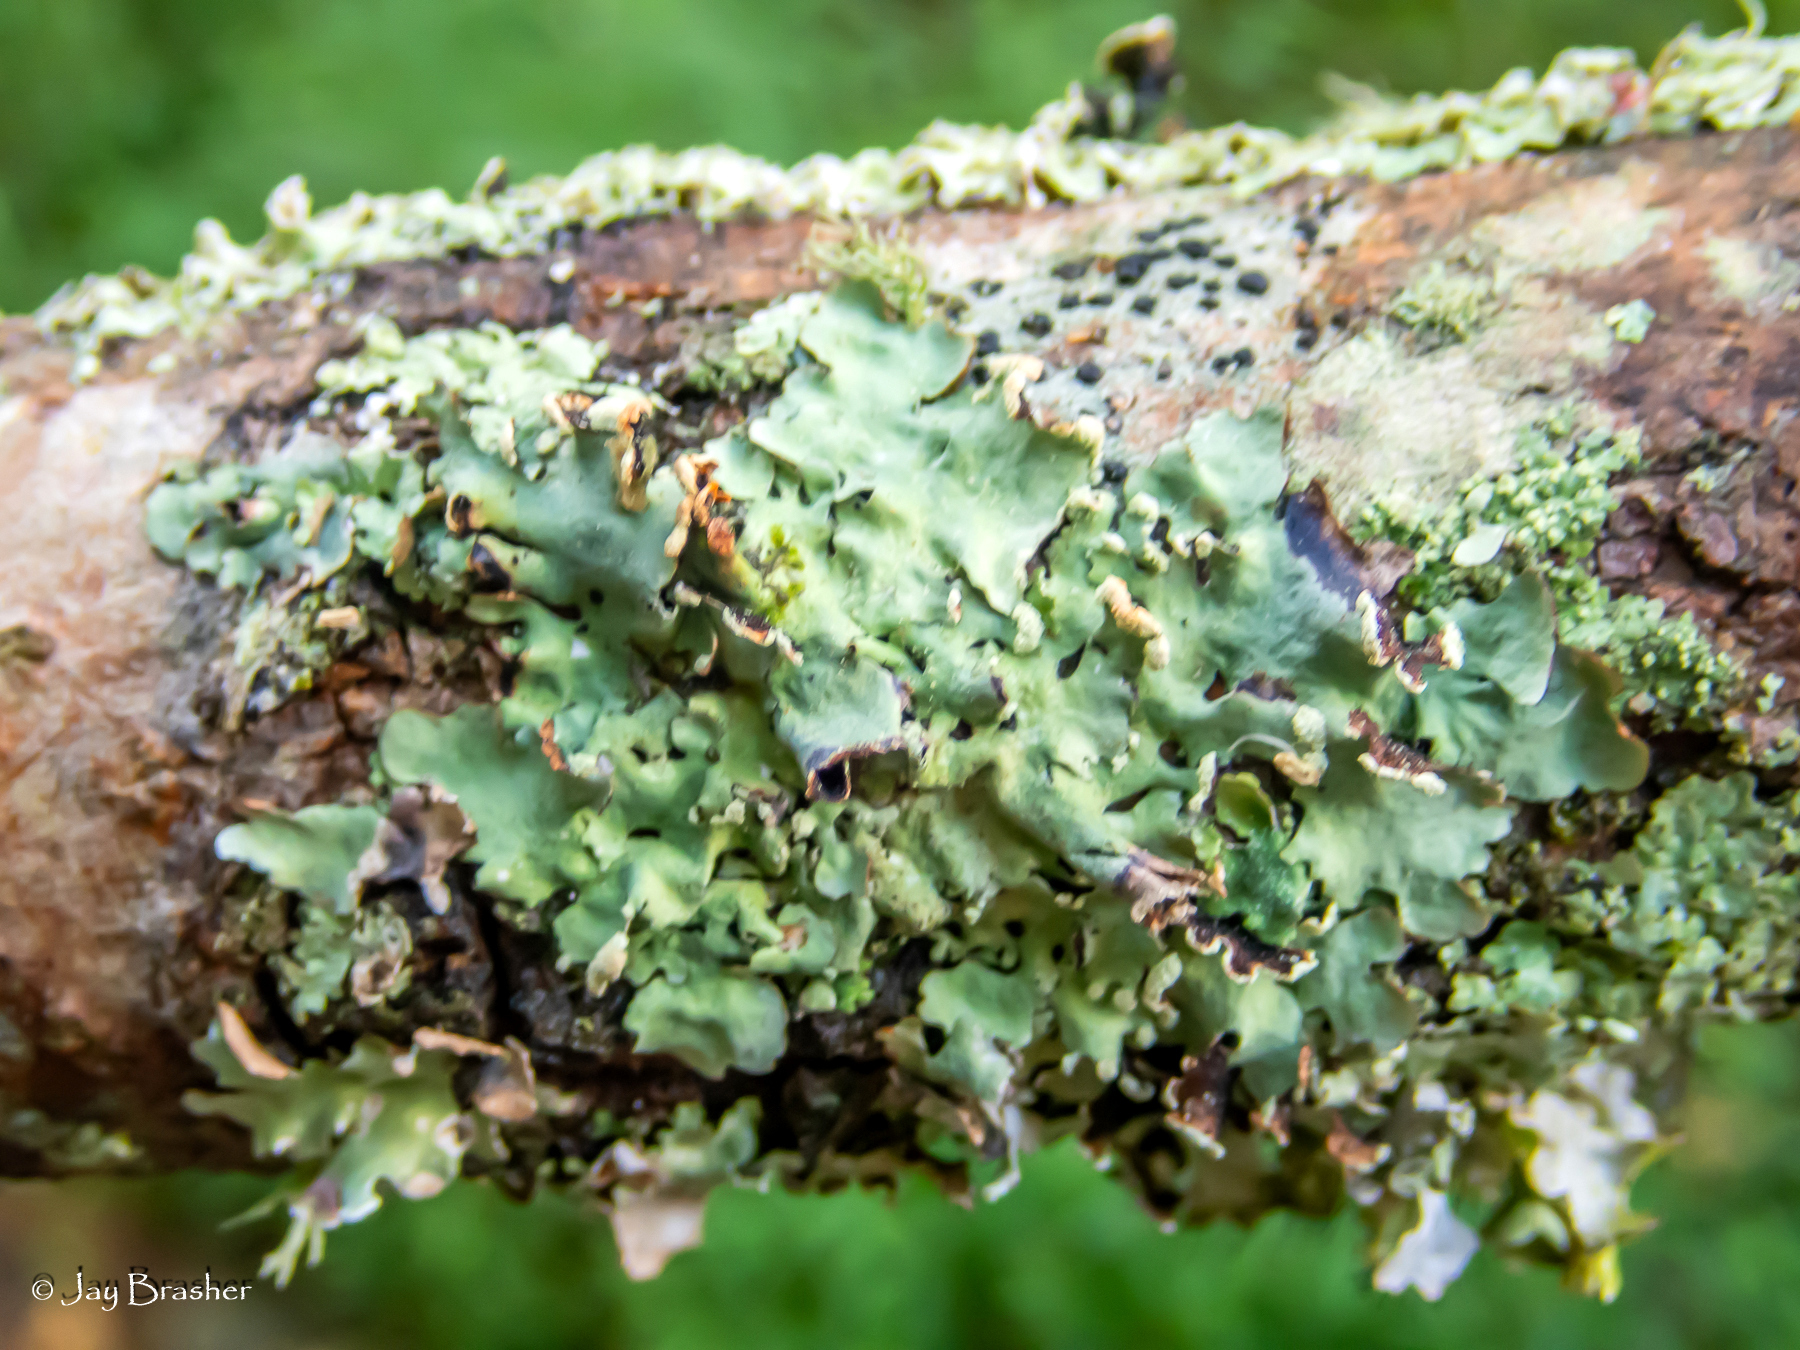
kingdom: Fungi
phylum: Ascomycota
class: Lecanoromycetes
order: Lecanorales
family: Parmeliaceae
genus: Parmotrema
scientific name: Parmotrema reticulatum
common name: Black sheet lichen
